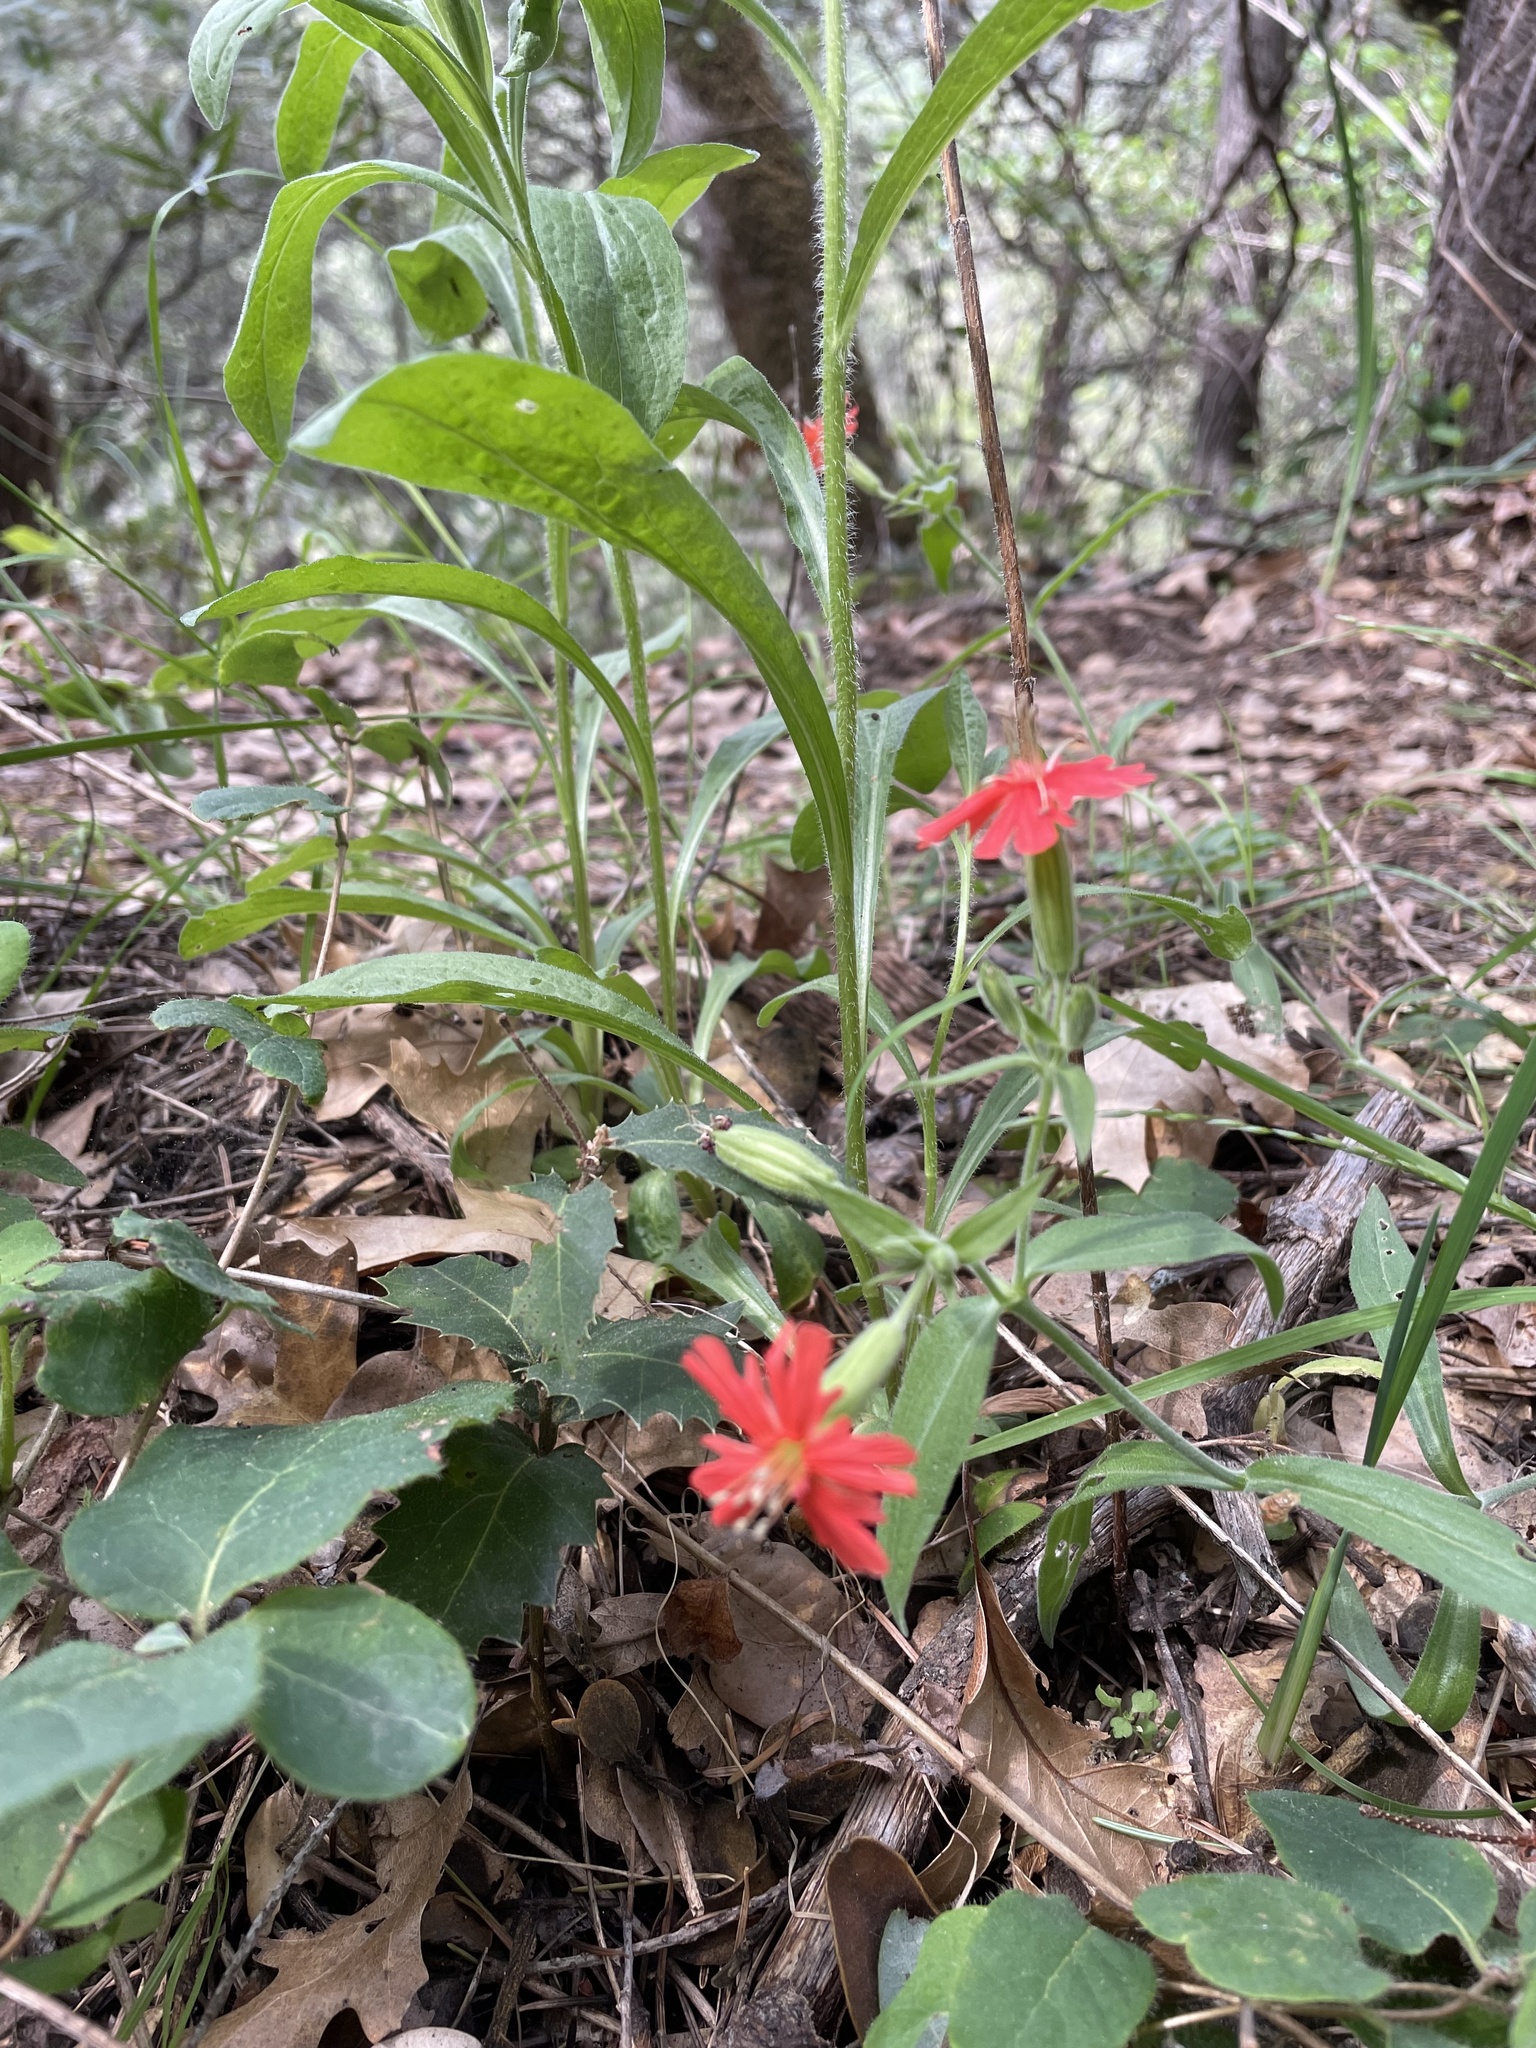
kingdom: Plantae
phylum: Tracheophyta
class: Magnoliopsida
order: Caryophyllales
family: Caryophyllaceae
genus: Silene
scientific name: Silene laciniata
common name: Indian-pink
